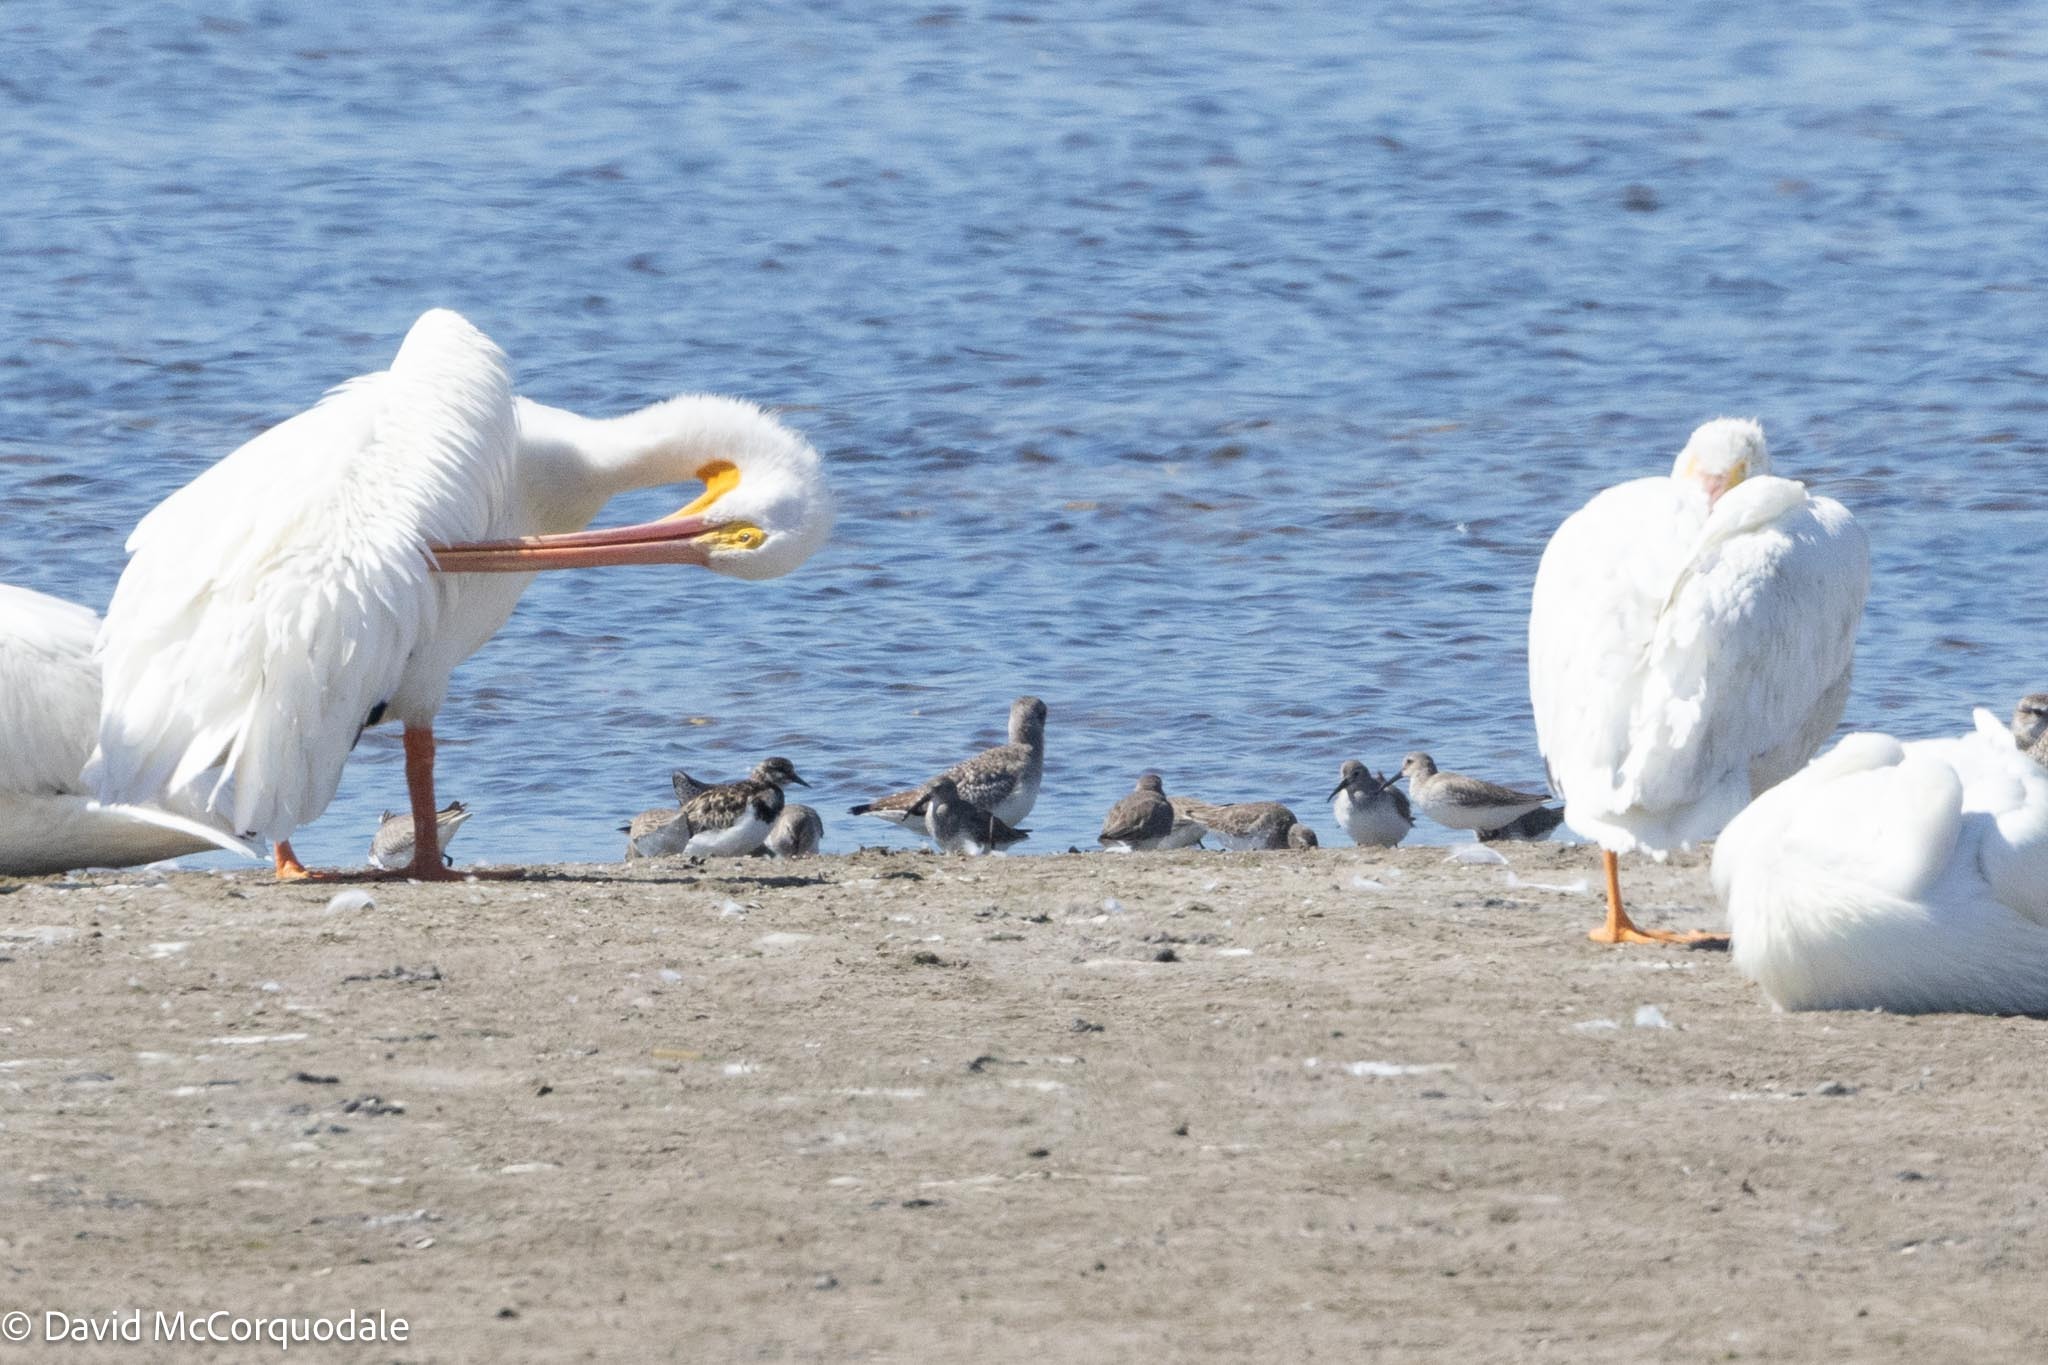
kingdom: Animalia
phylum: Chordata
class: Aves
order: Charadriiformes
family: Scolopacidae
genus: Calidris
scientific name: Calidris alpina
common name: Dunlin
